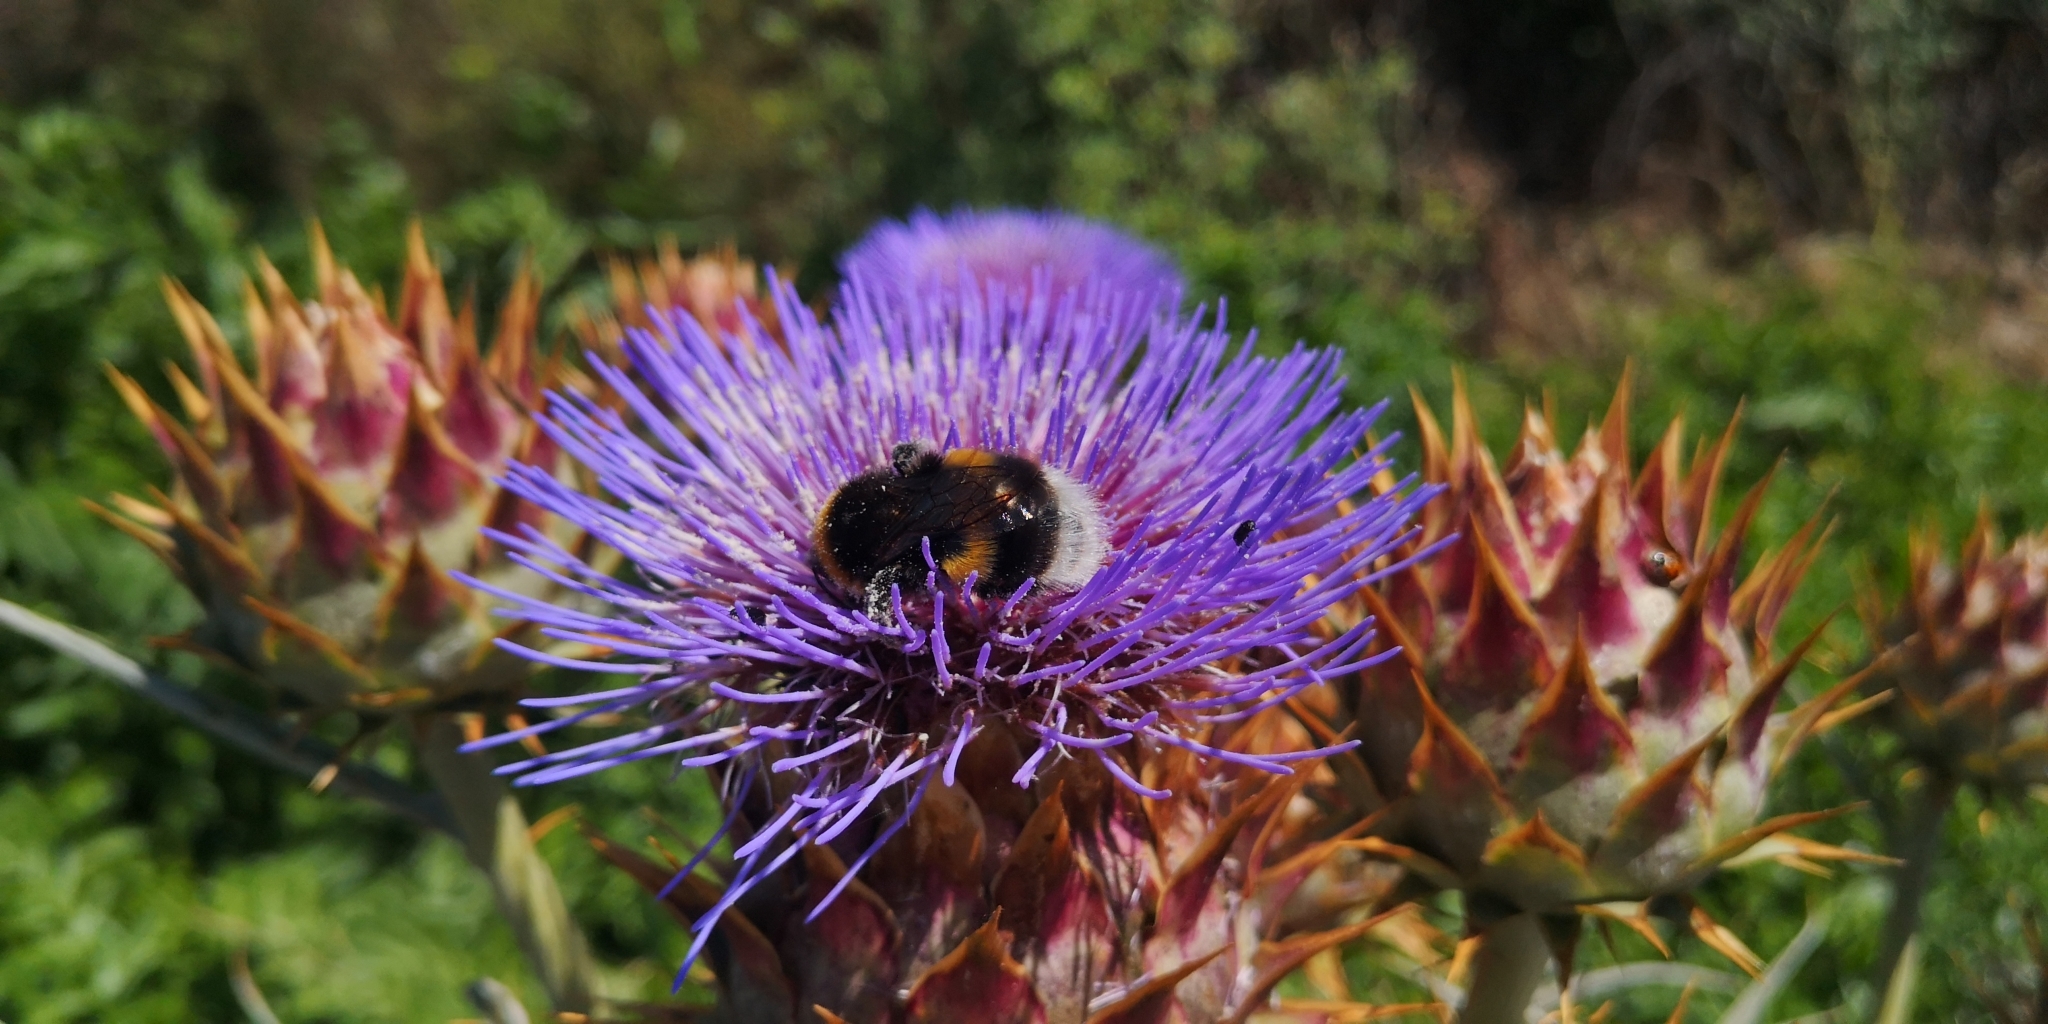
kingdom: Animalia
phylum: Arthropoda
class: Insecta
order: Hymenoptera
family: Apidae
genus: Bombus
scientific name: Bombus terrestris
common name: Buff-tailed bumblebee
